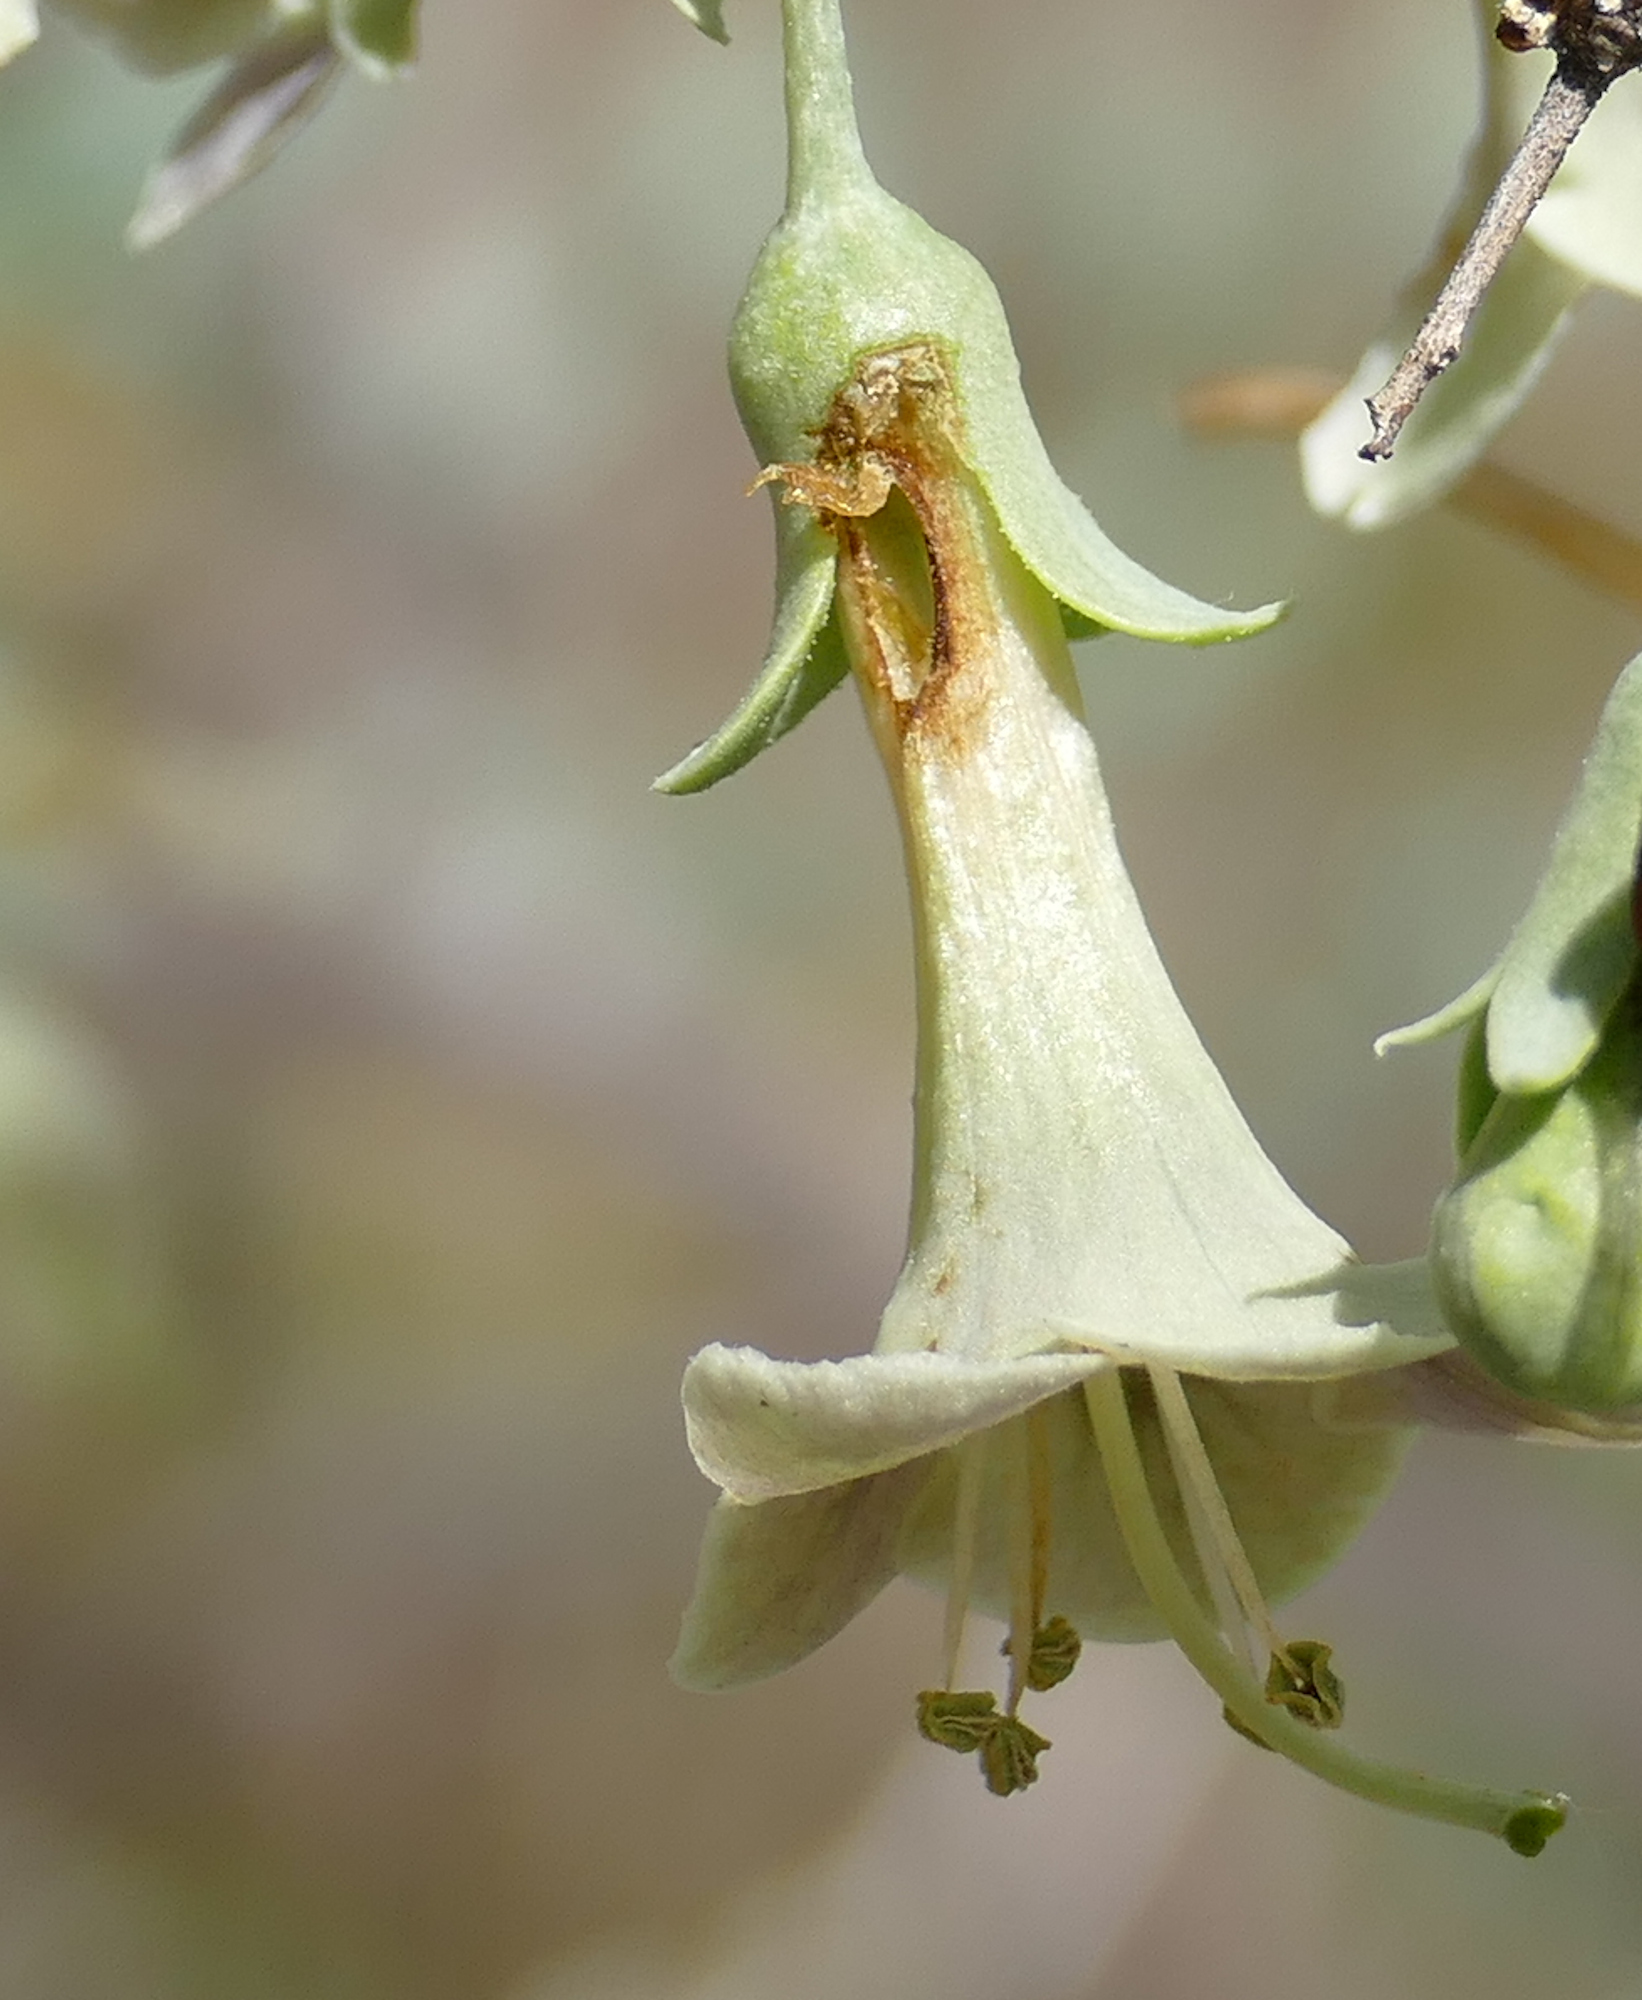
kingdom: Plantae
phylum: Tracheophyta
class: Magnoliopsida
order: Solanales
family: Solanaceae
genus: Lycium
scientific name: Lycium pallidum
